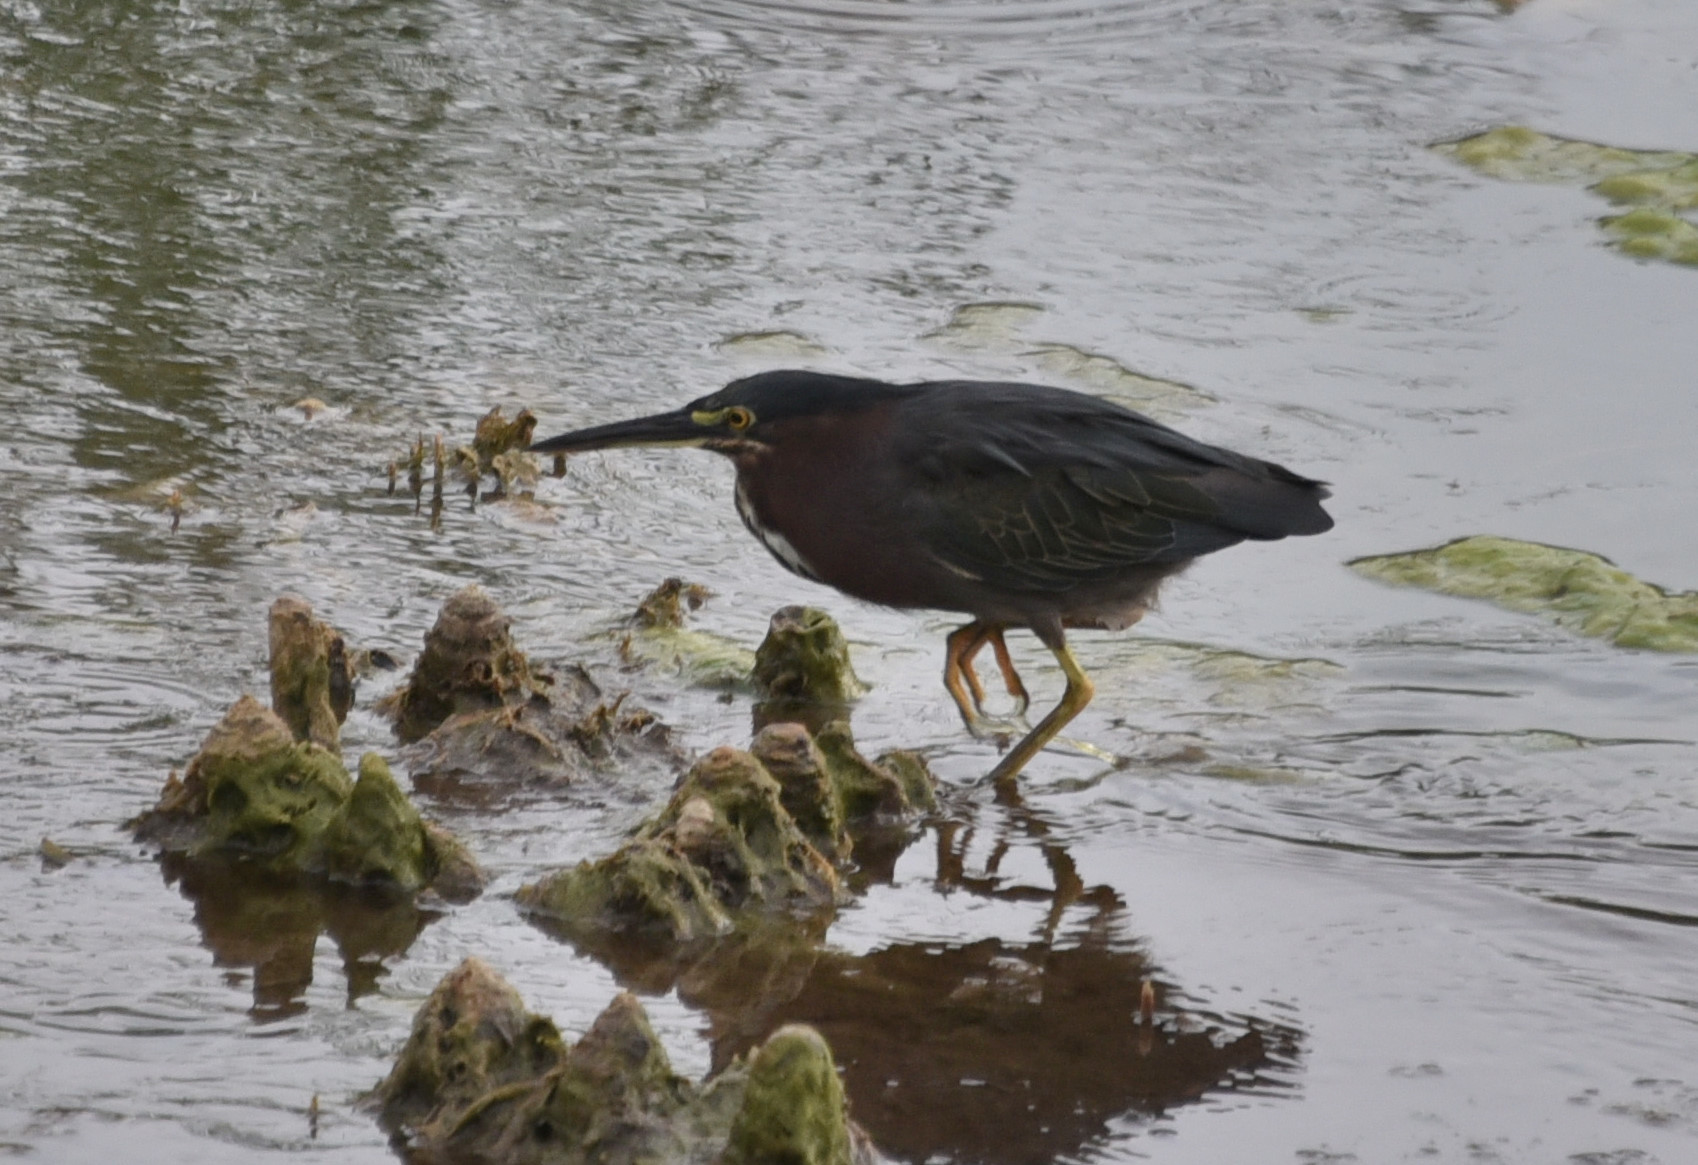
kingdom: Animalia
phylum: Chordata
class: Aves
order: Pelecaniformes
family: Ardeidae
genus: Butorides
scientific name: Butorides virescens
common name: Green heron
